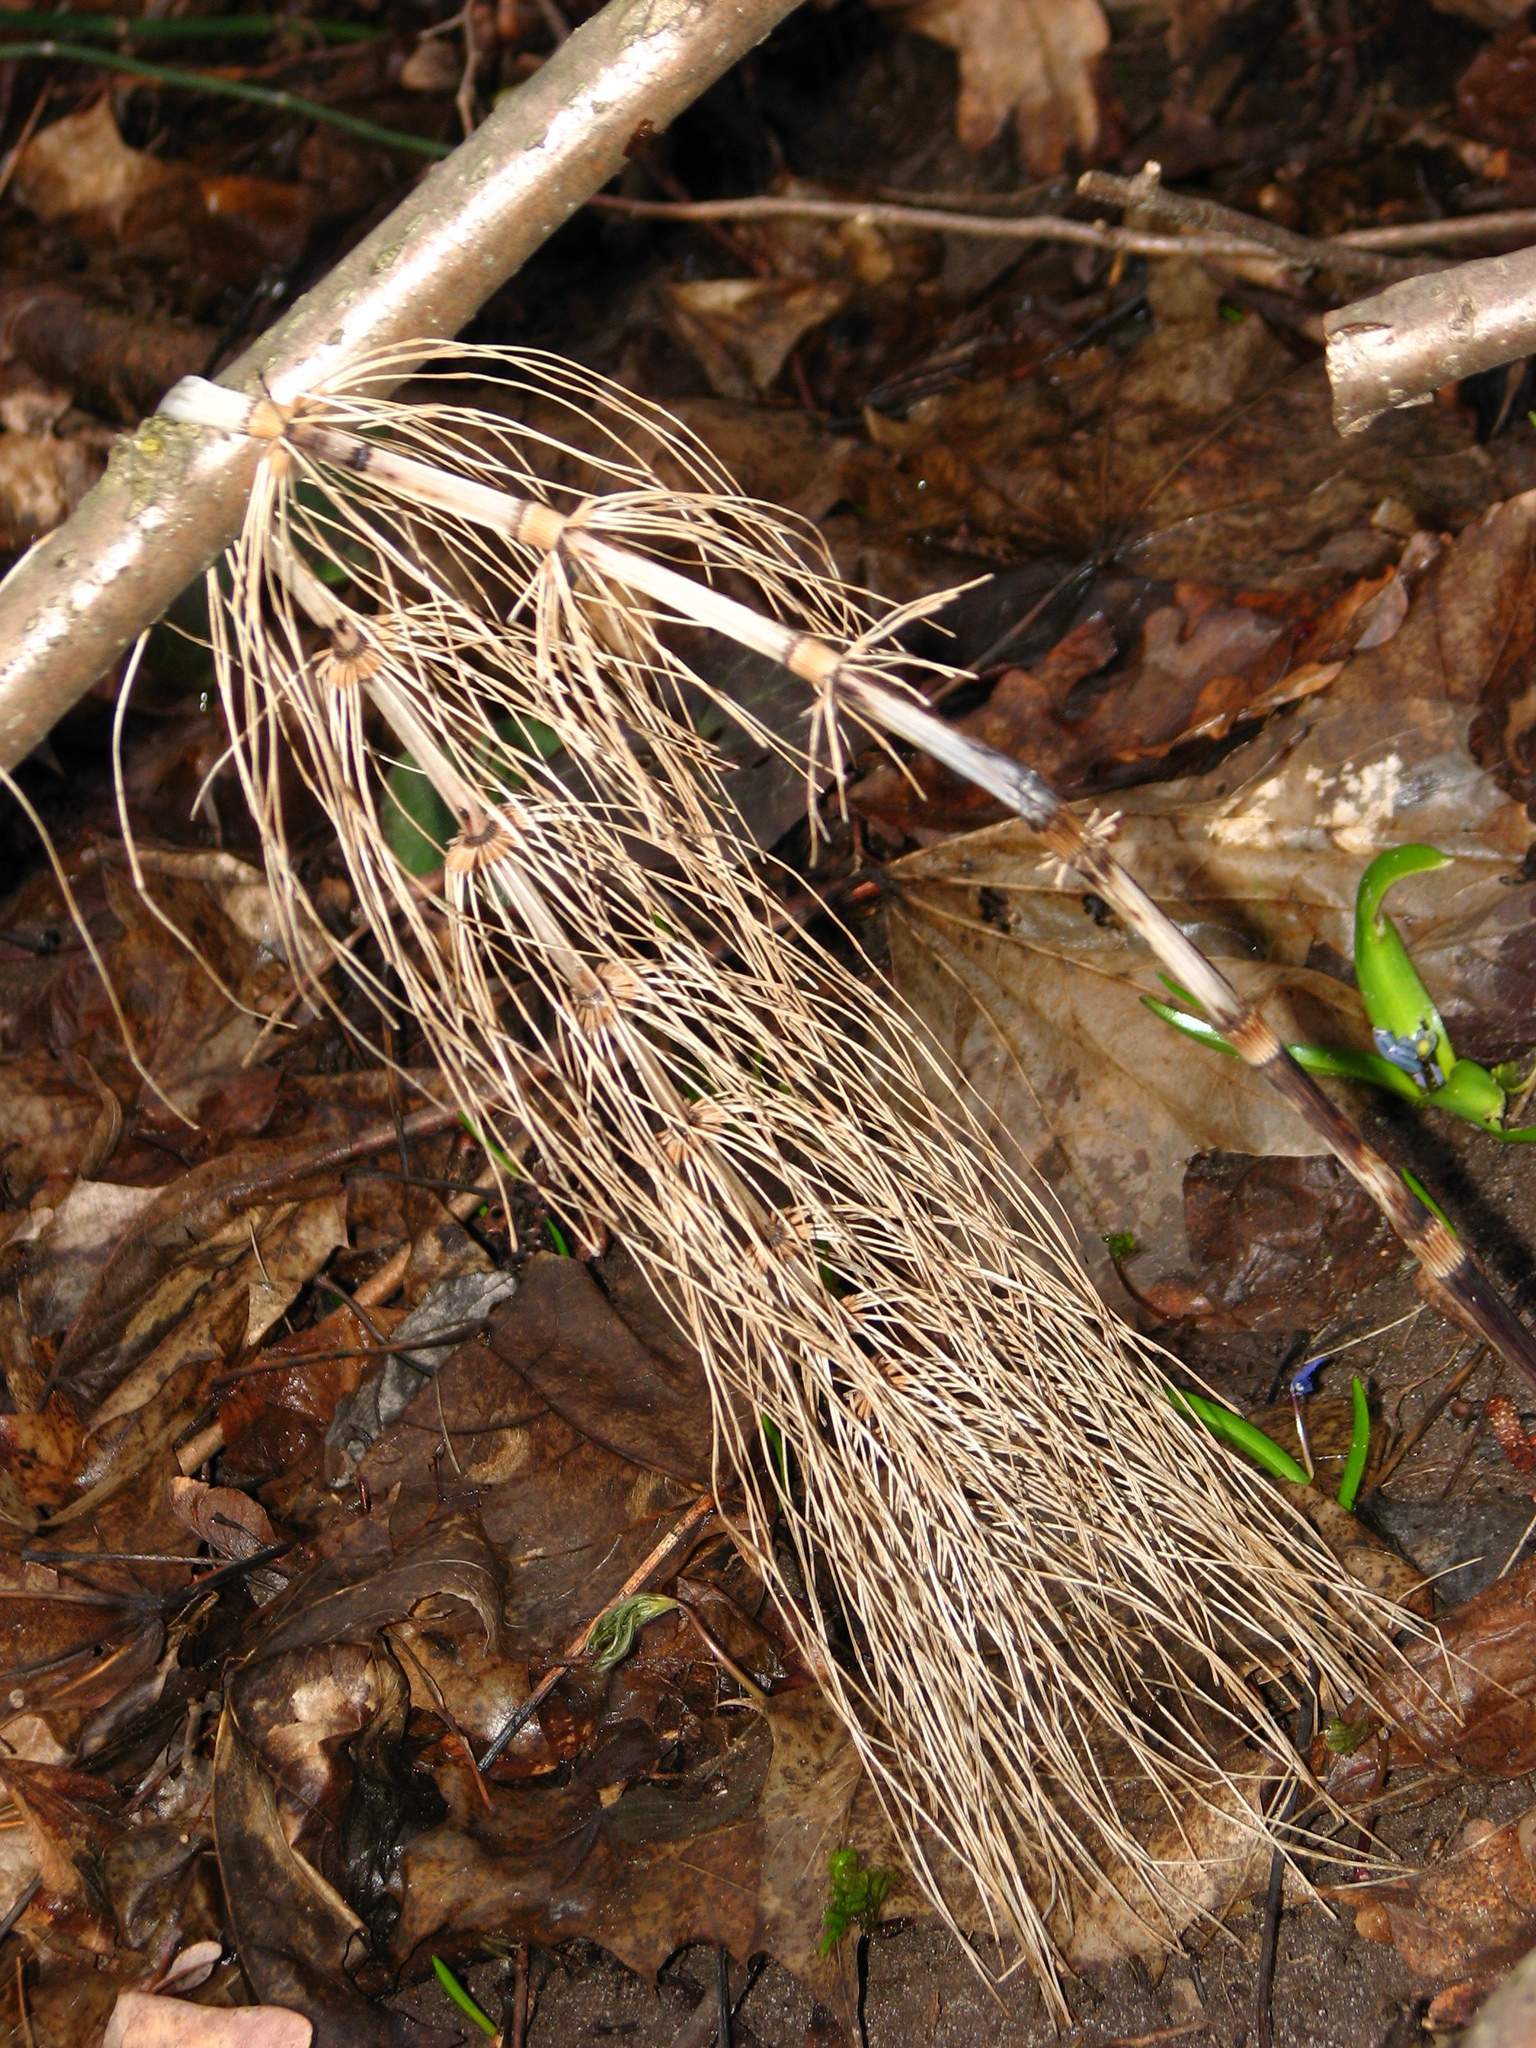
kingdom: Plantae
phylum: Tracheophyta
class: Polypodiopsida
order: Equisetales
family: Equisetaceae
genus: Equisetum
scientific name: Equisetum telmateia
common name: Great horsetail
